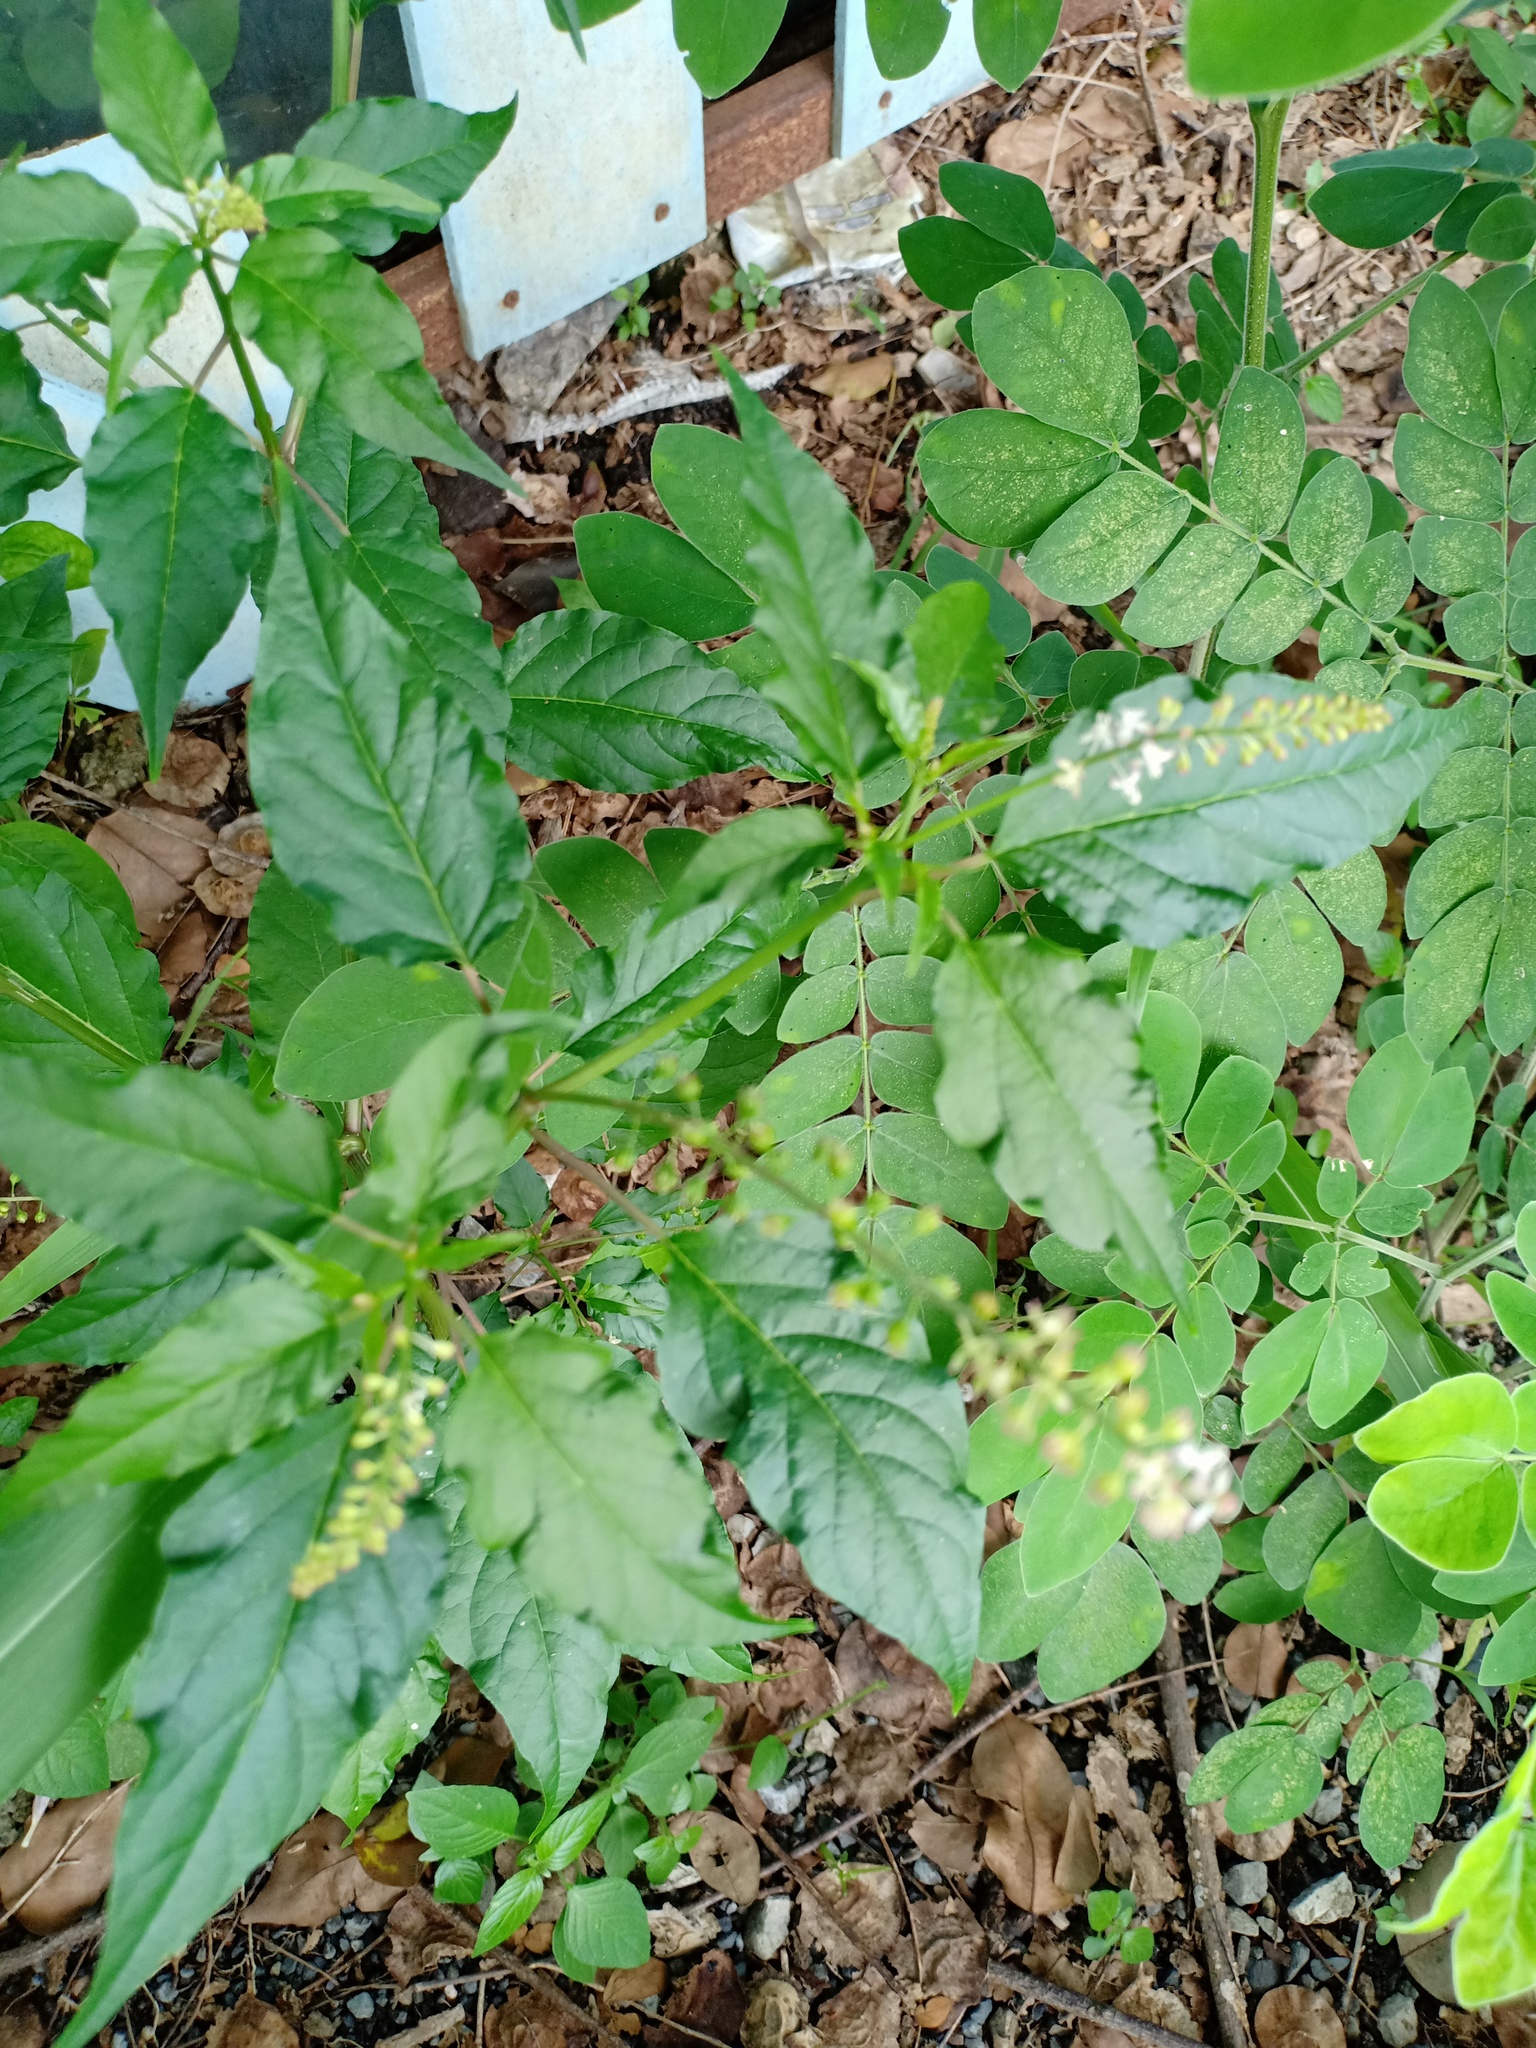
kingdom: Plantae
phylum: Tracheophyta
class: Magnoliopsida
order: Caryophyllales
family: Phytolaccaceae
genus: Rivina
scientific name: Rivina humilis
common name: Rougeplant
